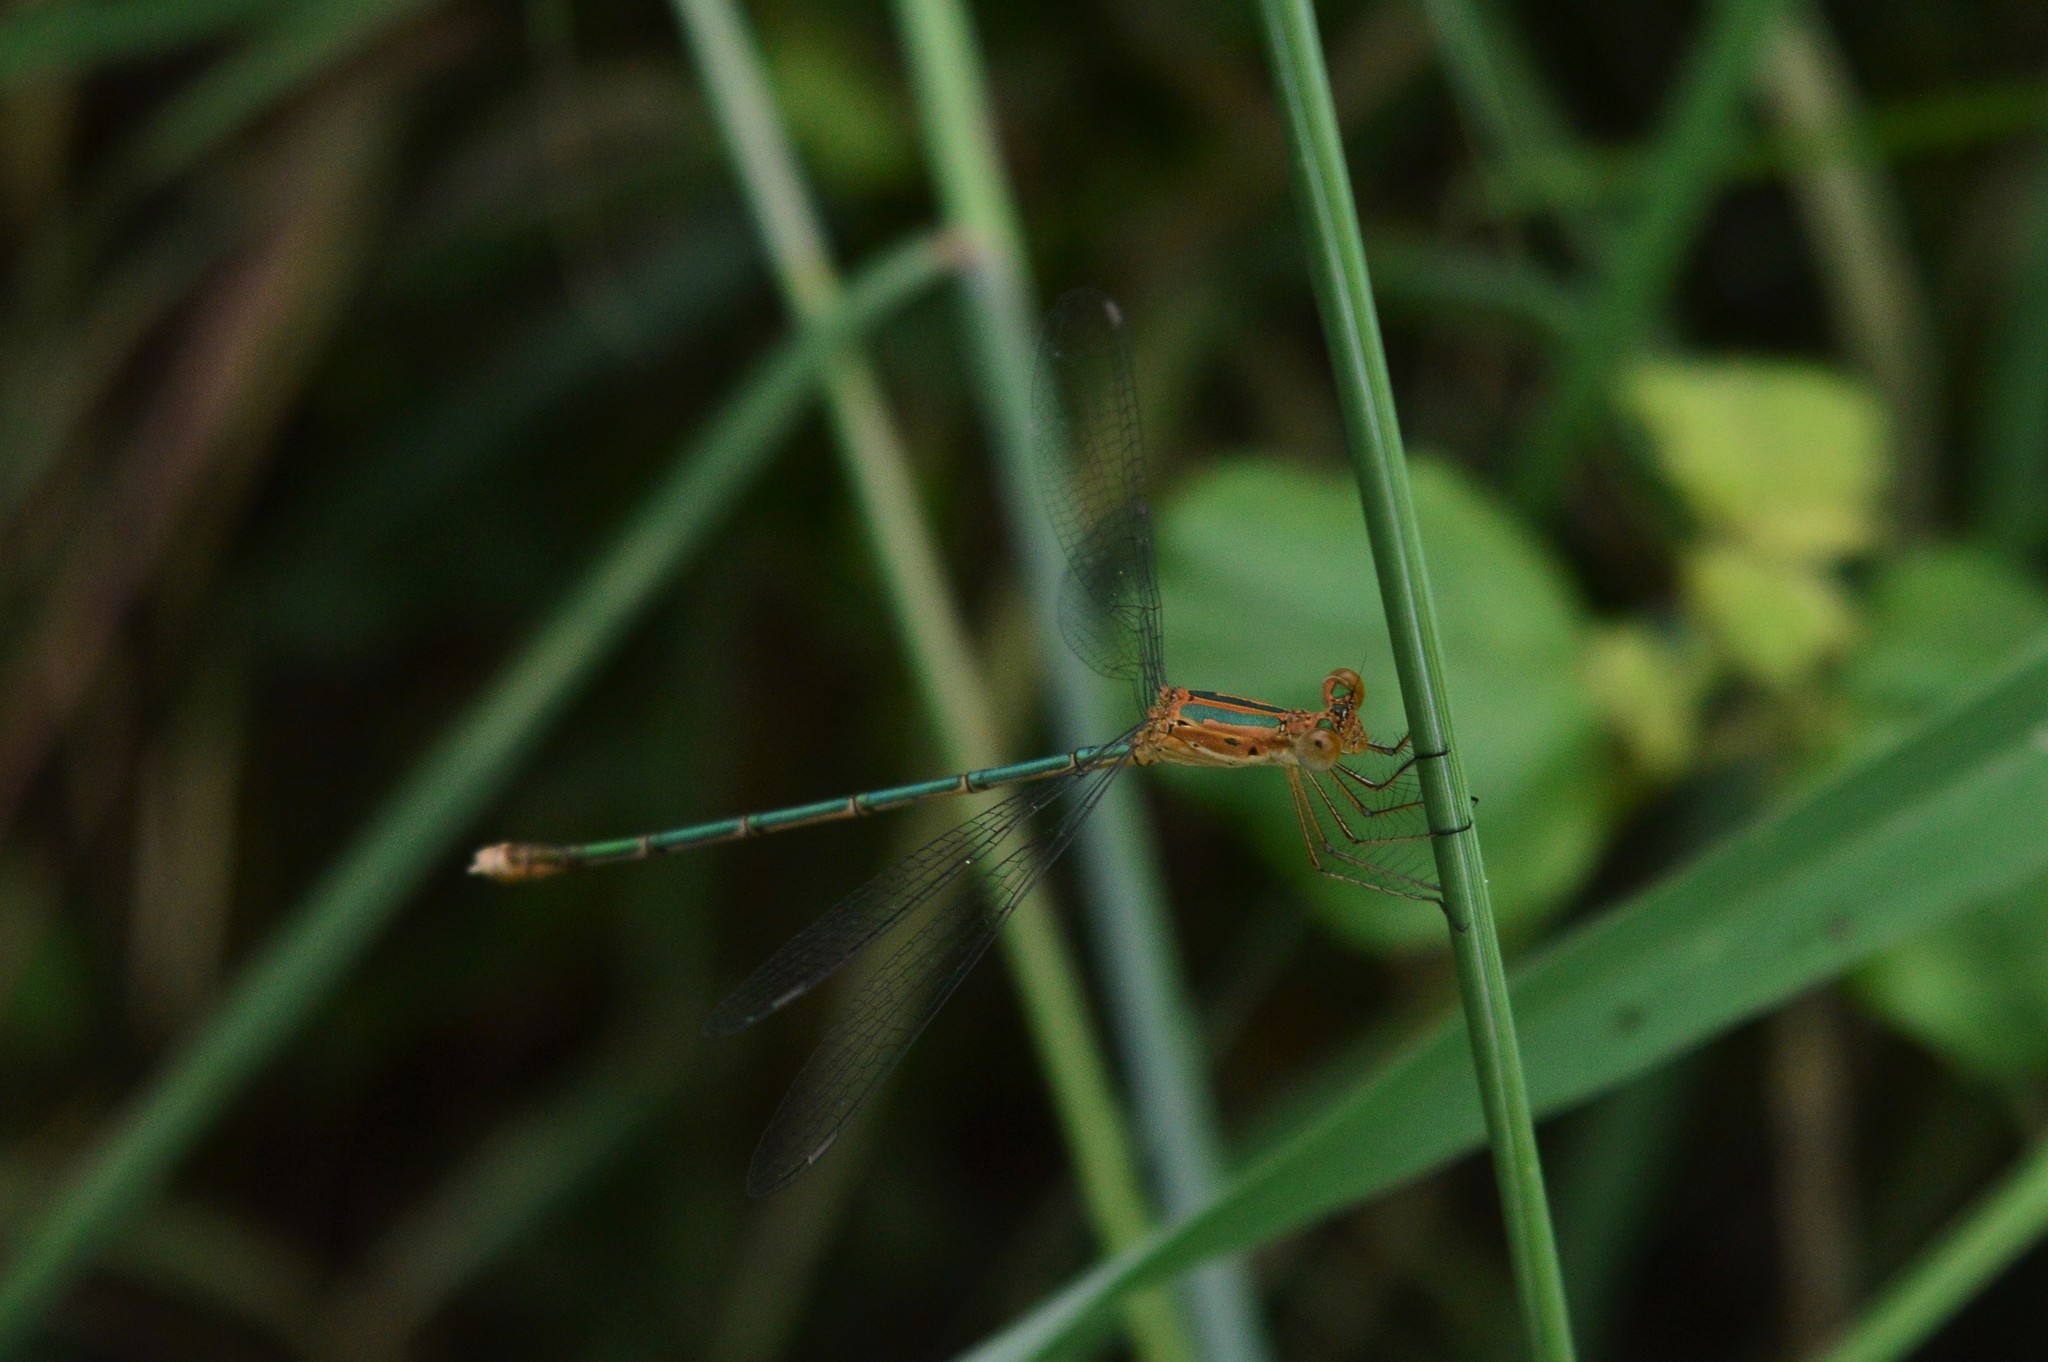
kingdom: Animalia
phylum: Arthropoda
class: Insecta
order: Odonata
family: Lestidae
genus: Lestes
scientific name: Lestes elatus
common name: Emerald spreadwing
